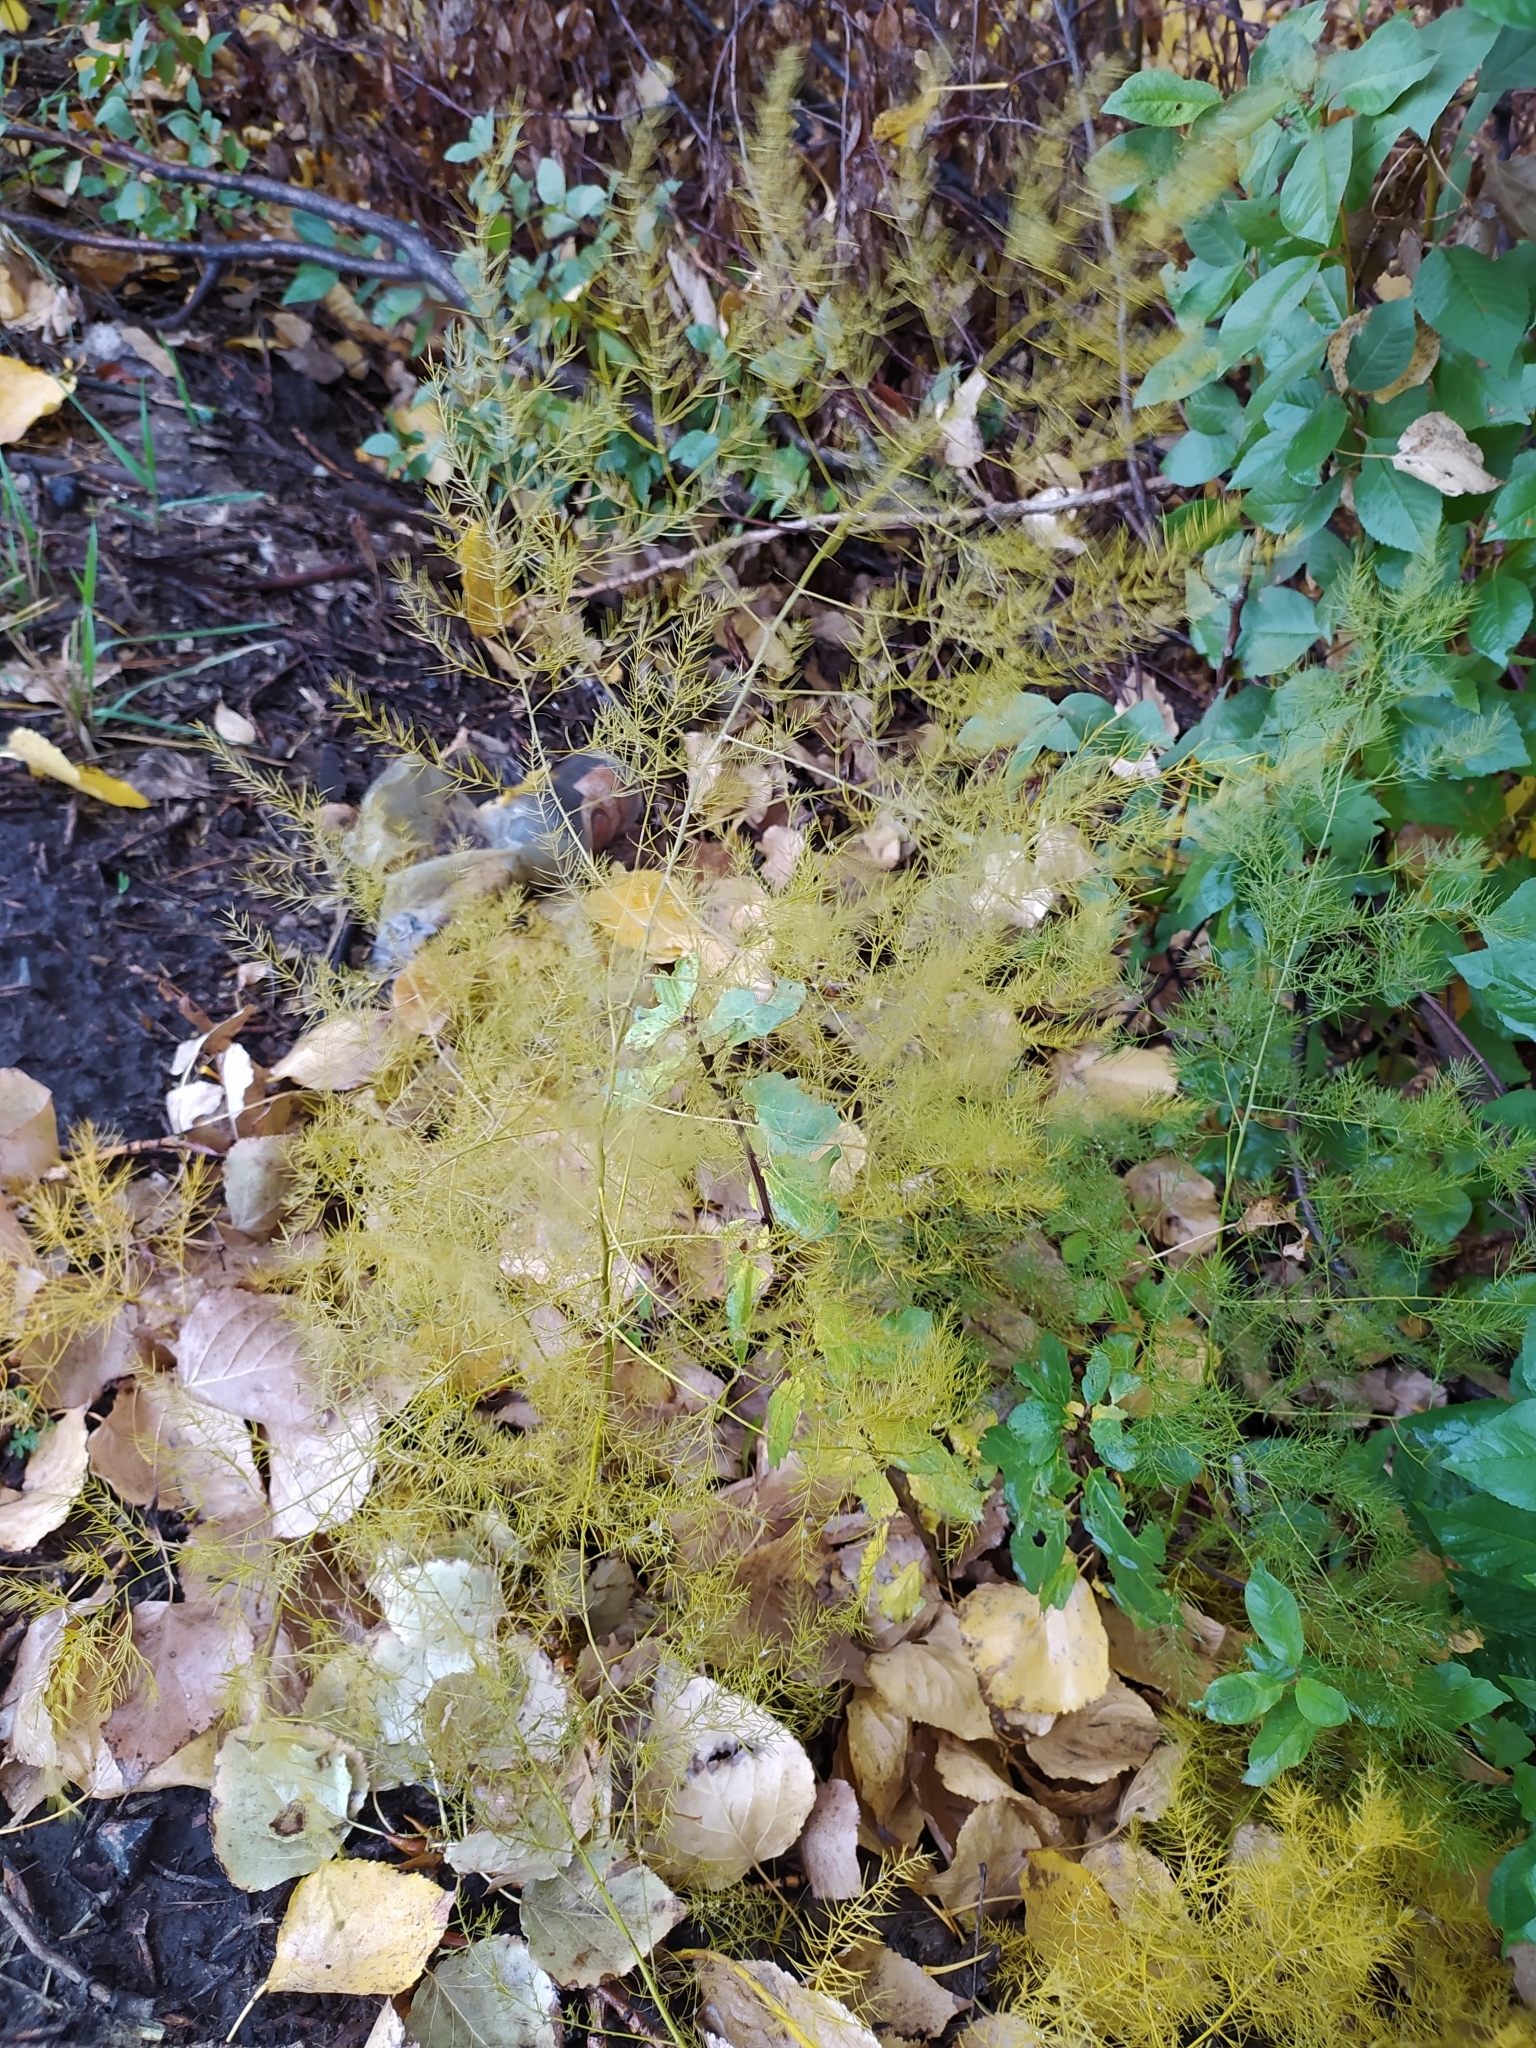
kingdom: Plantae
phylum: Tracheophyta
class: Liliopsida
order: Asparagales
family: Asparagaceae
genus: Asparagus
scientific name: Asparagus officinalis
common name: Garden asparagus
